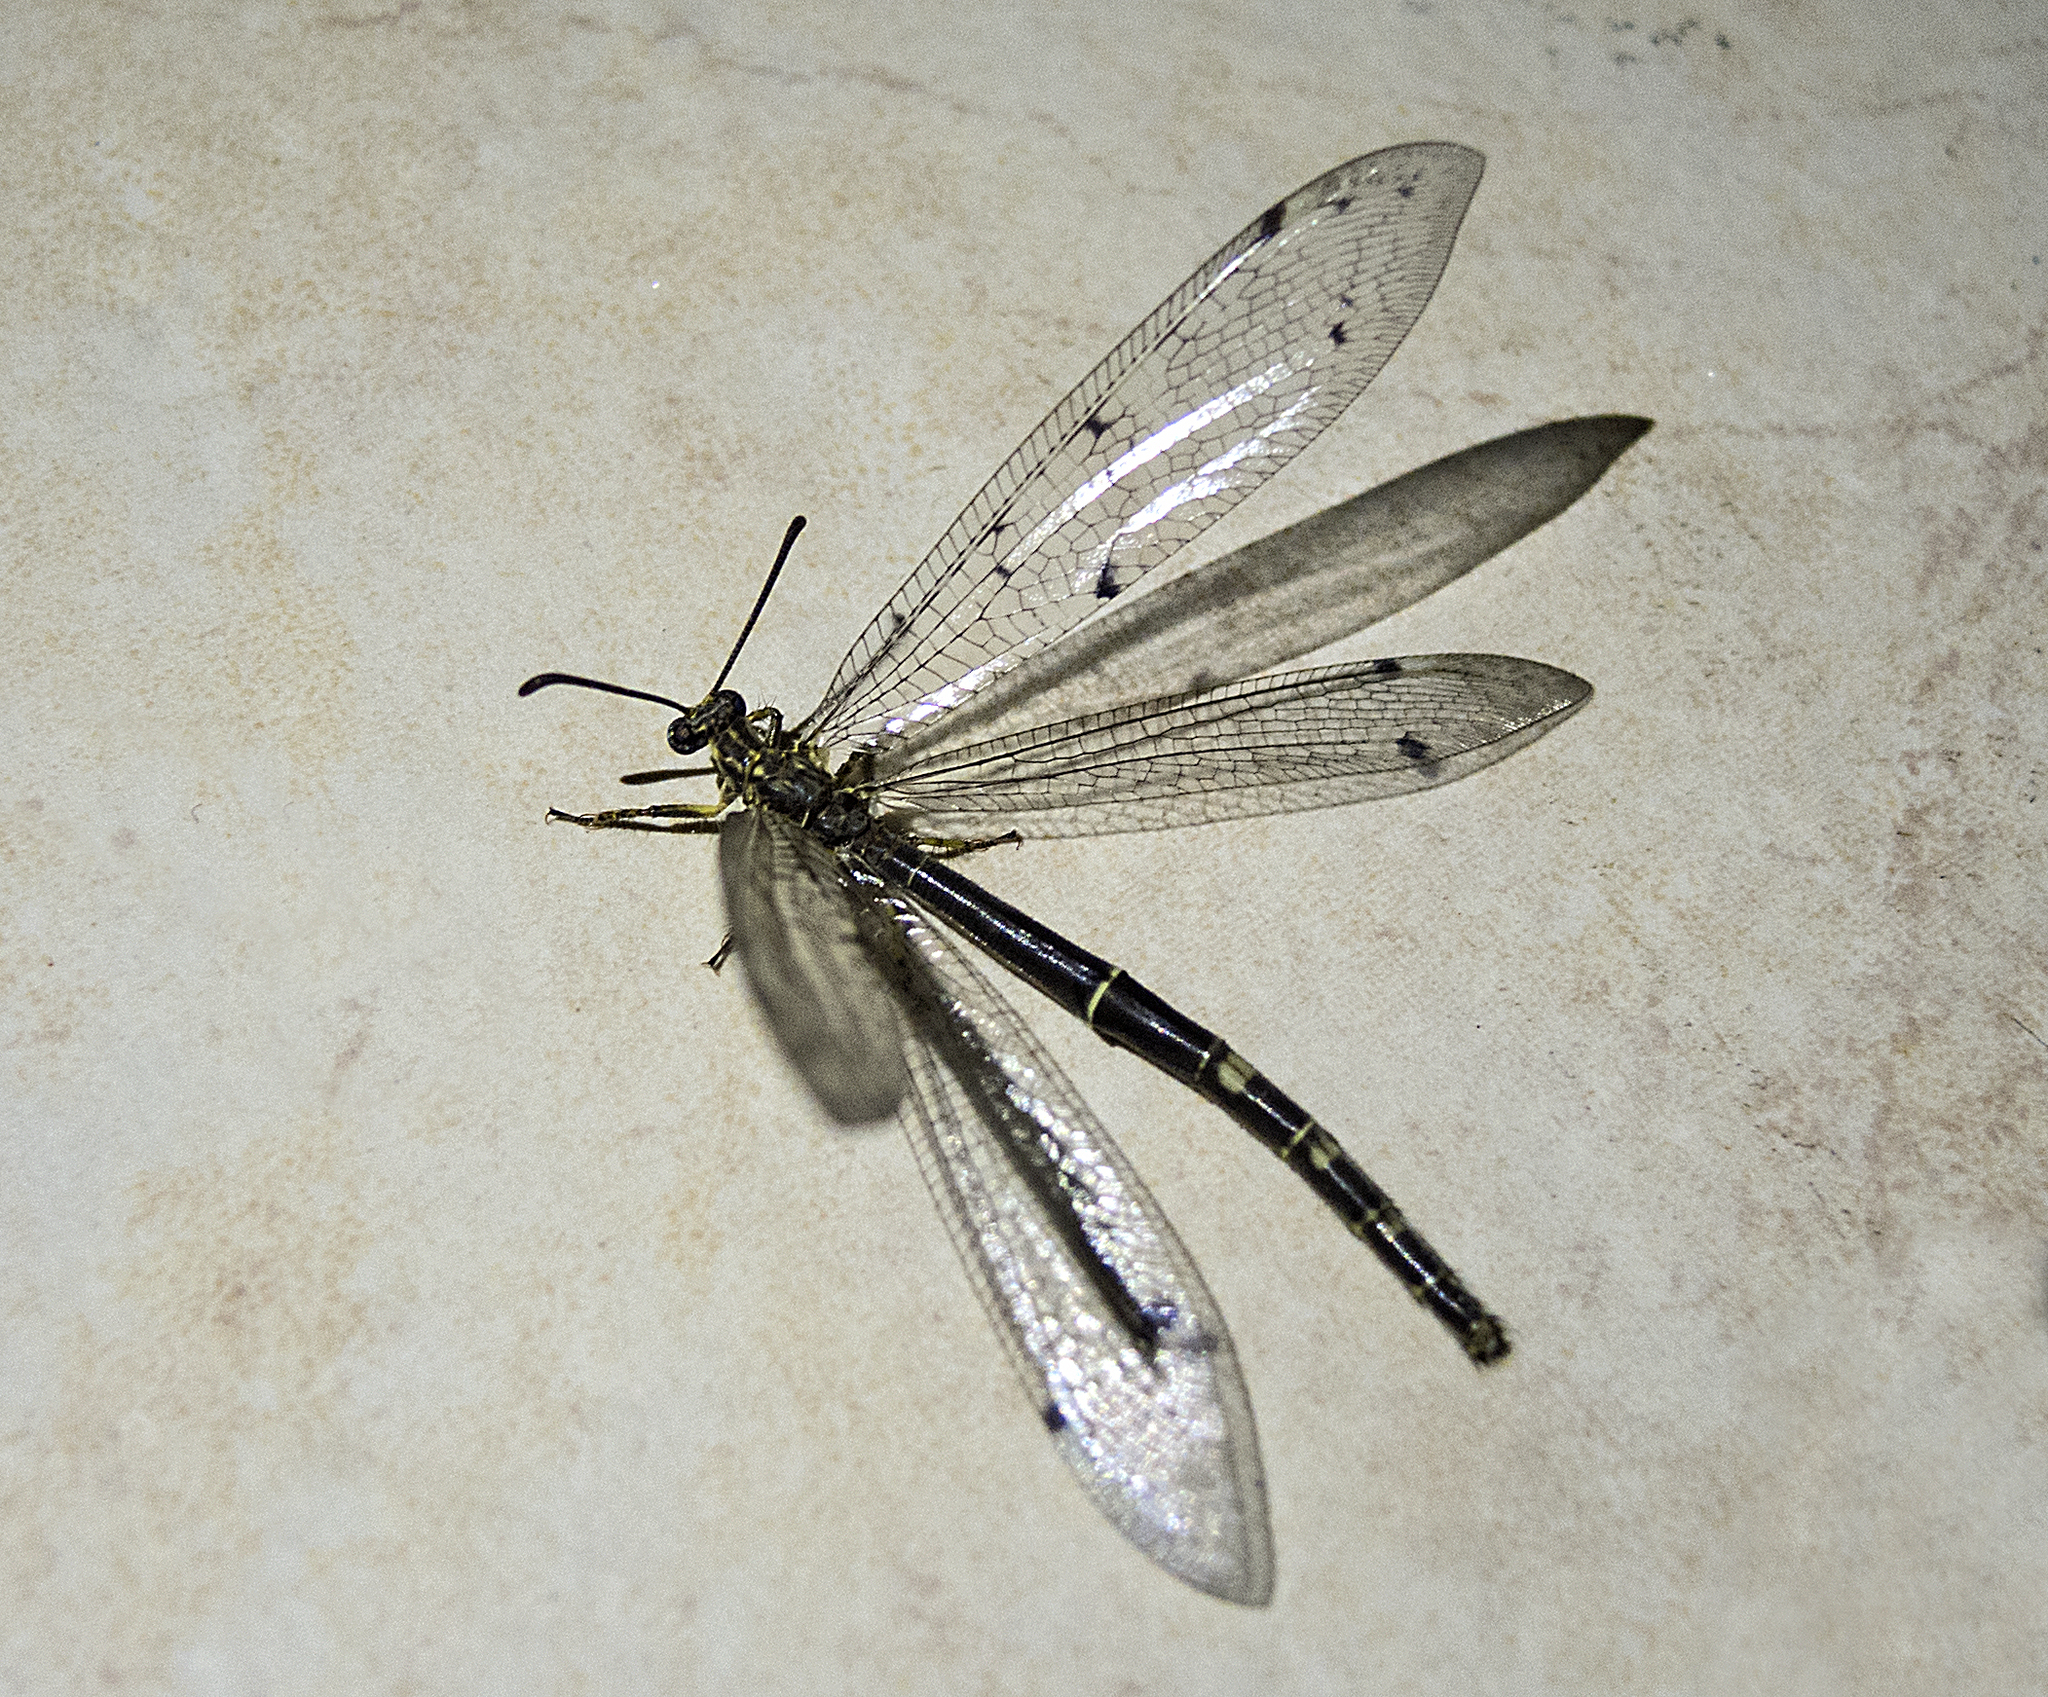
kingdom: Animalia
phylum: Arthropoda
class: Insecta
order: Neuroptera
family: Myrmeleontidae
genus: Distoleon
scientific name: Distoleon tetragrammicus
